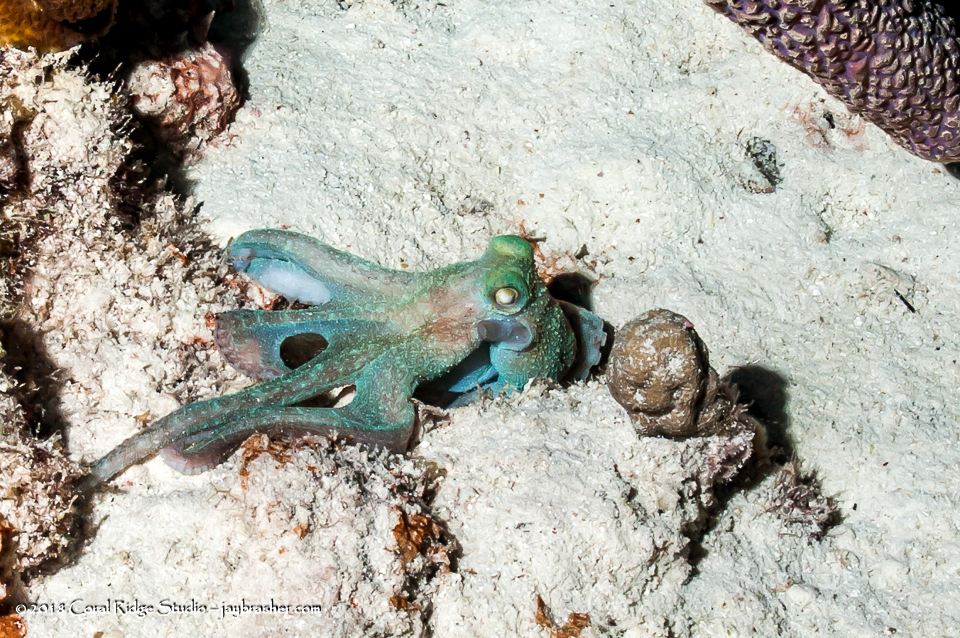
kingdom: Animalia
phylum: Mollusca
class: Cephalopoda
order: Octopoda
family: Octopodidae
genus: Octopus
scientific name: Octopus briareus
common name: Caribbean reef octopus
